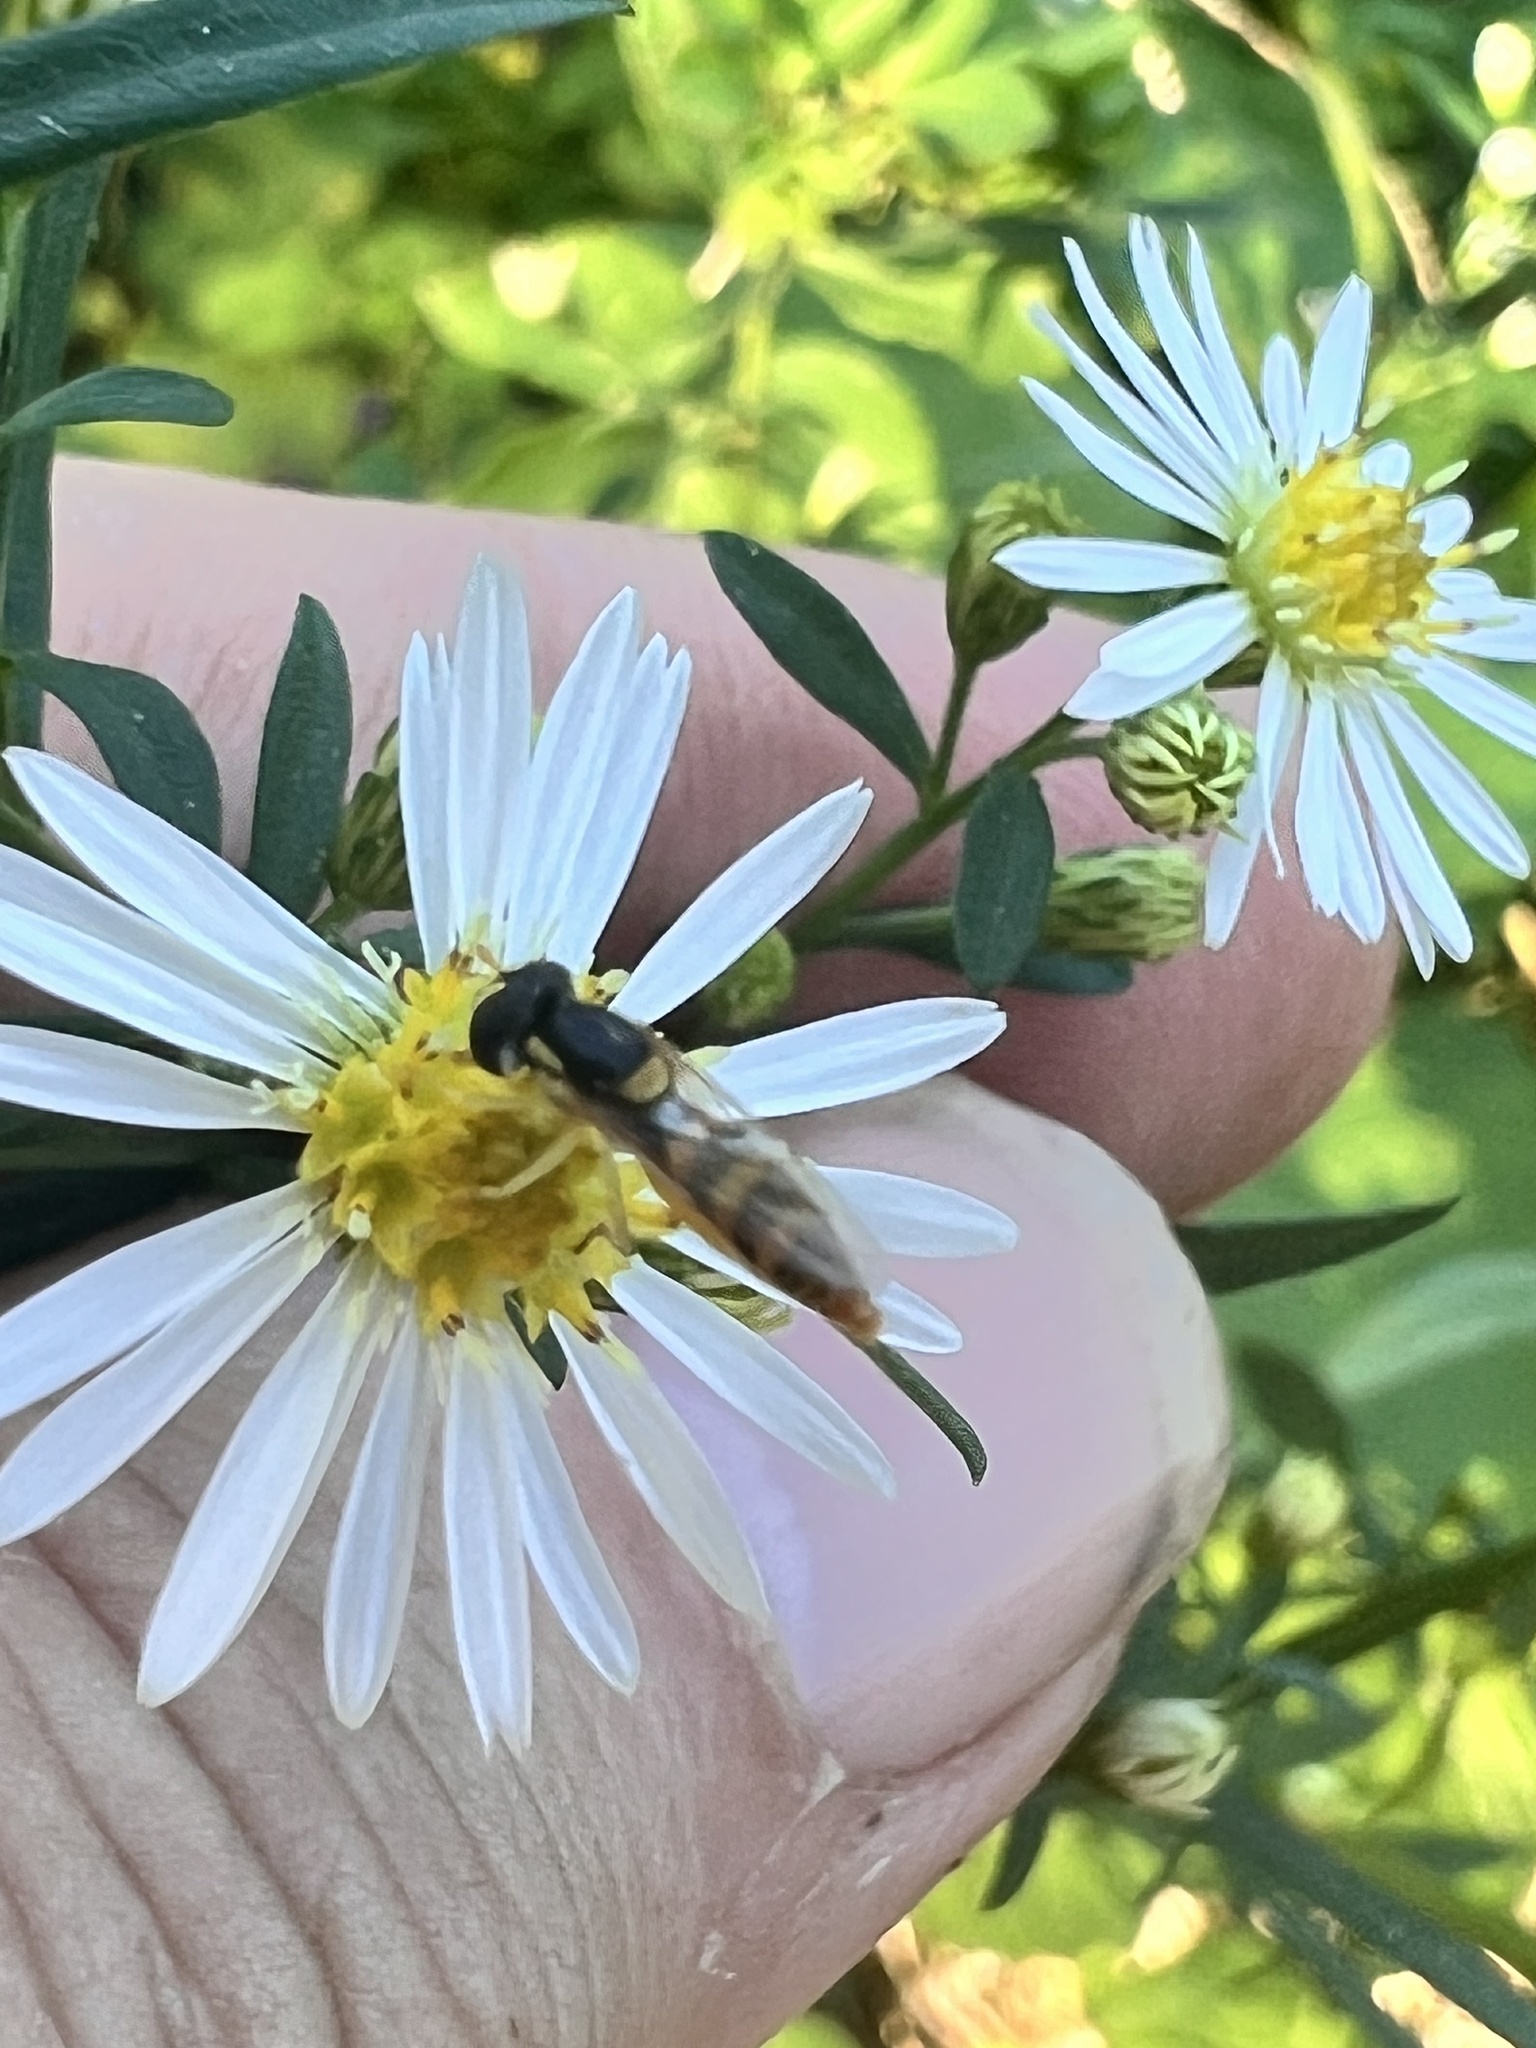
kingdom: Animalia
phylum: Arthropoda
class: Insecta
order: Diptera
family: Syrphidae
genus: Sphaerophoria
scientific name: Sphaerophoria contigua
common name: Tufted globetail
